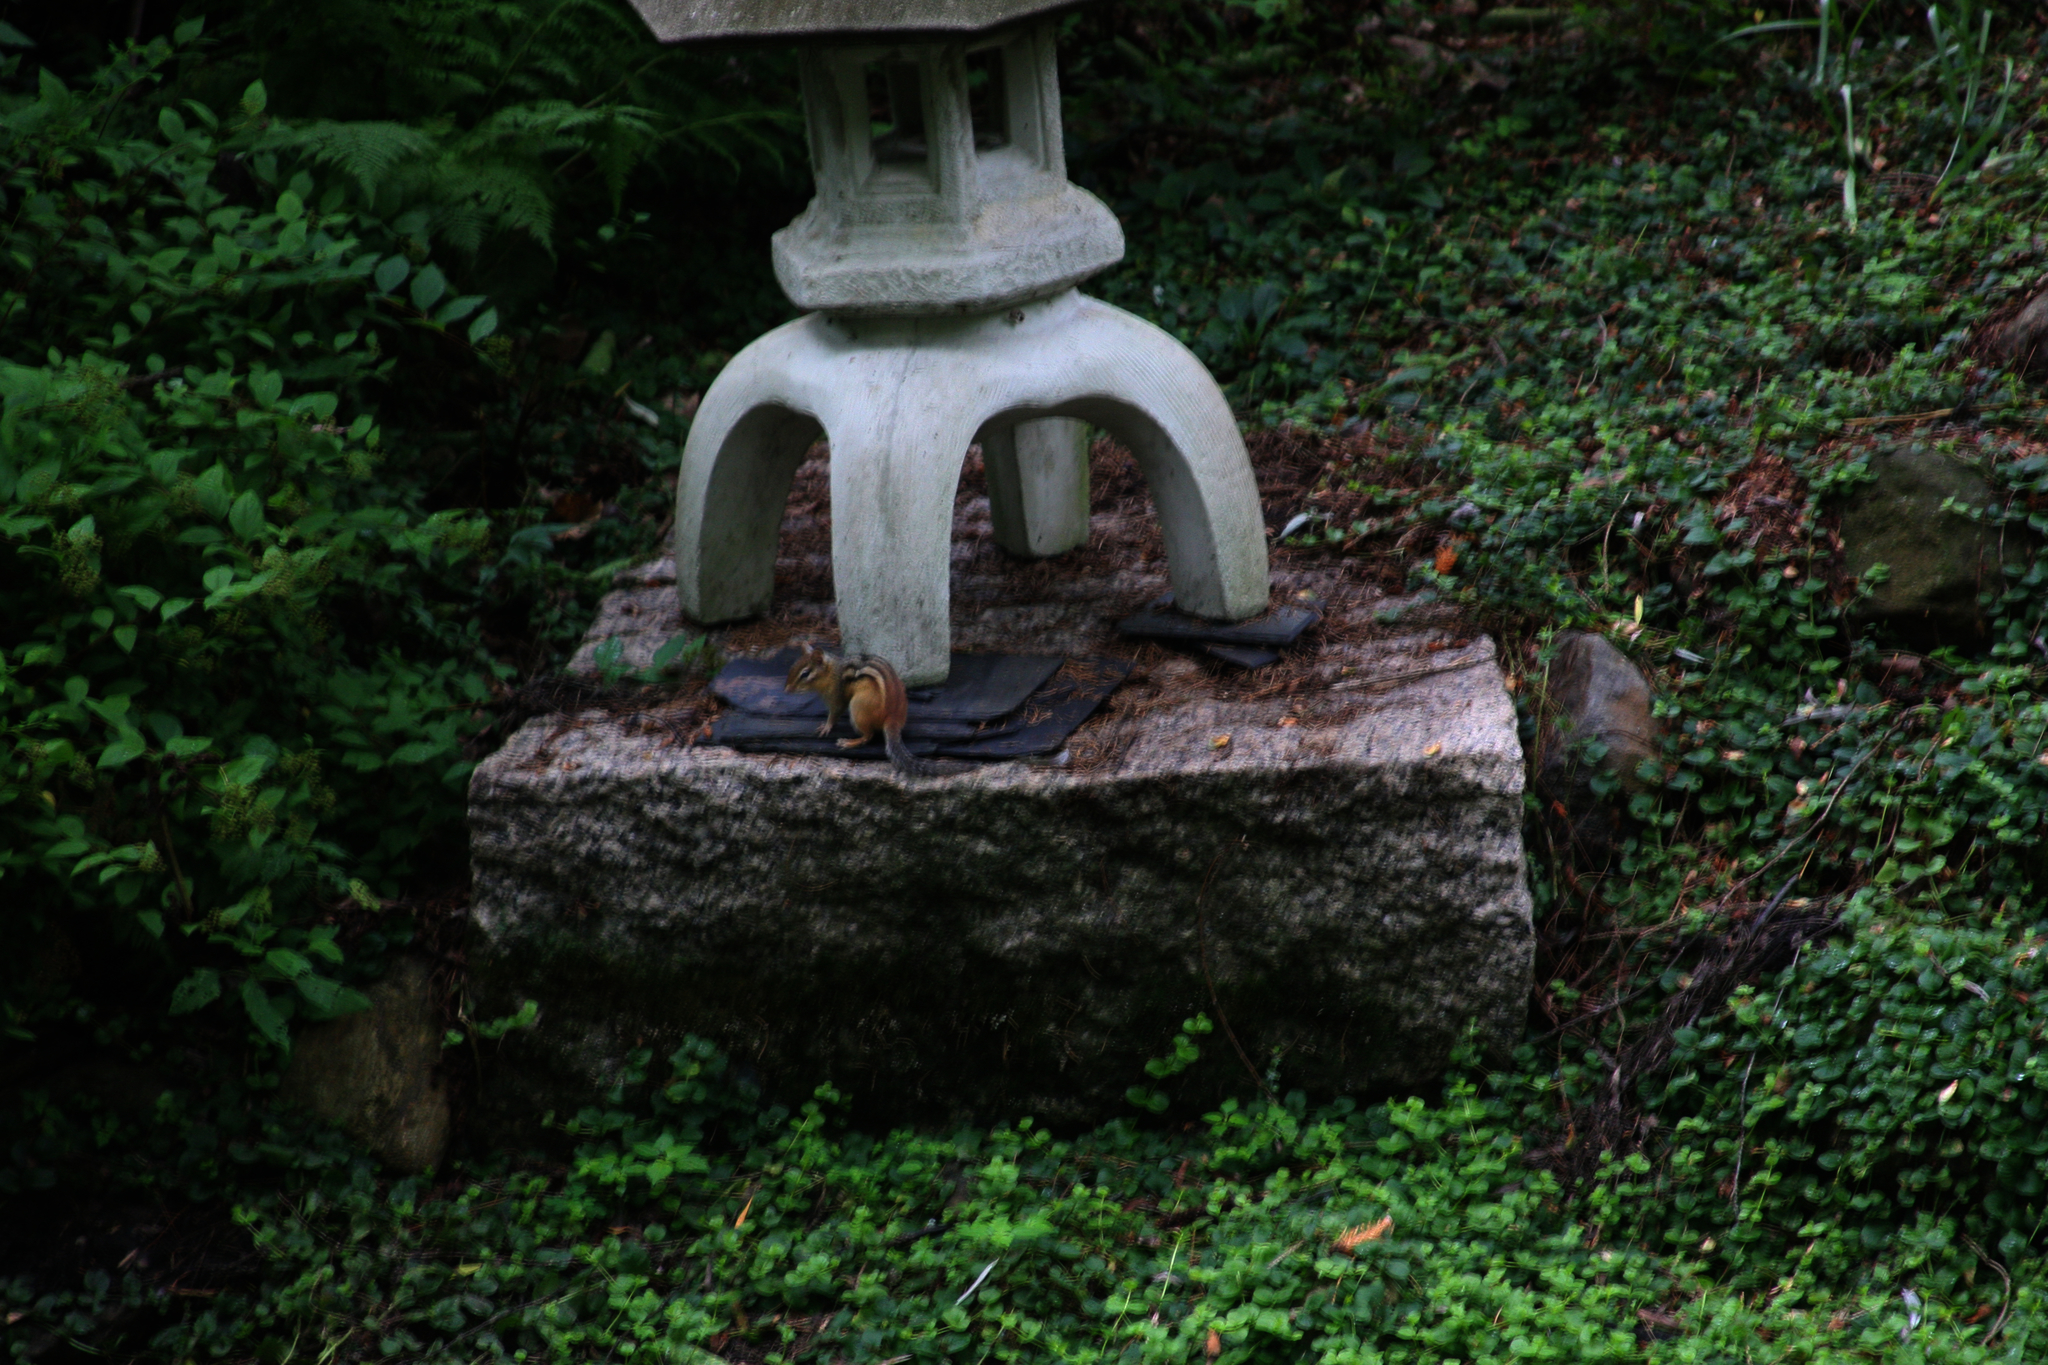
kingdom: Animalia
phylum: Chordata
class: Mammalia
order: Rodentia
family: Sciuridae
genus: Tamias
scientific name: Tamias striatus
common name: Eastern chipmunk
